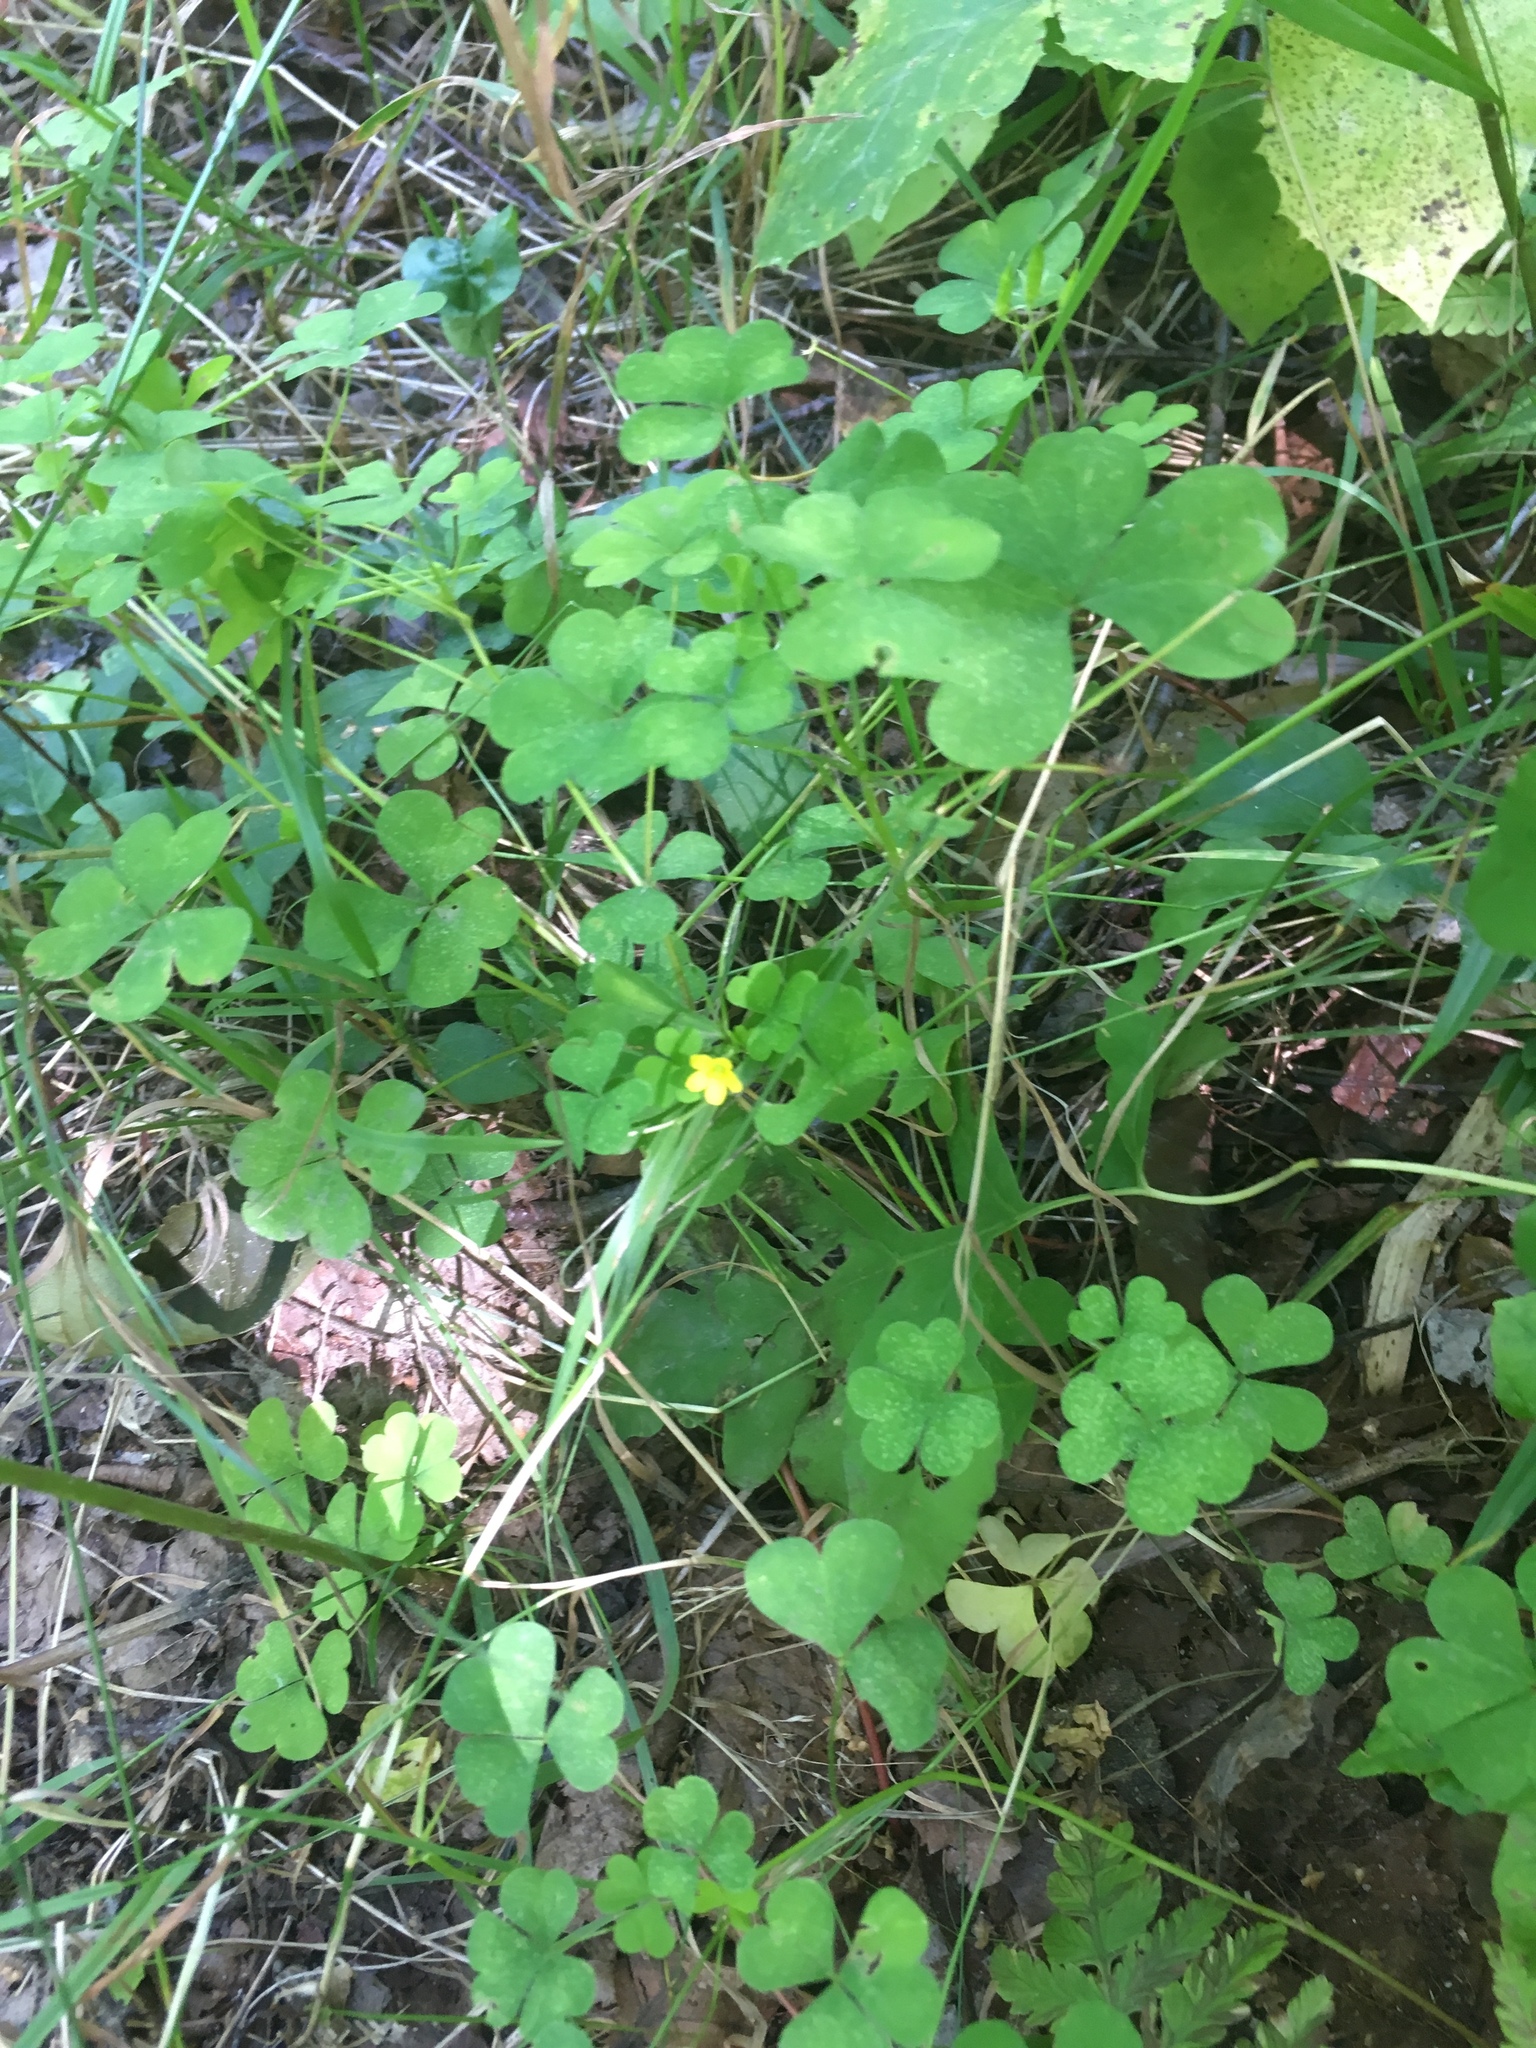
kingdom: Plantae
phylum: Tracheophyta
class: Magnoliopsida
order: Oxalidales
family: Oxalidaceae
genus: Oxalis
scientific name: Oxalis stricta
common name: Upright yellow-sorrel
